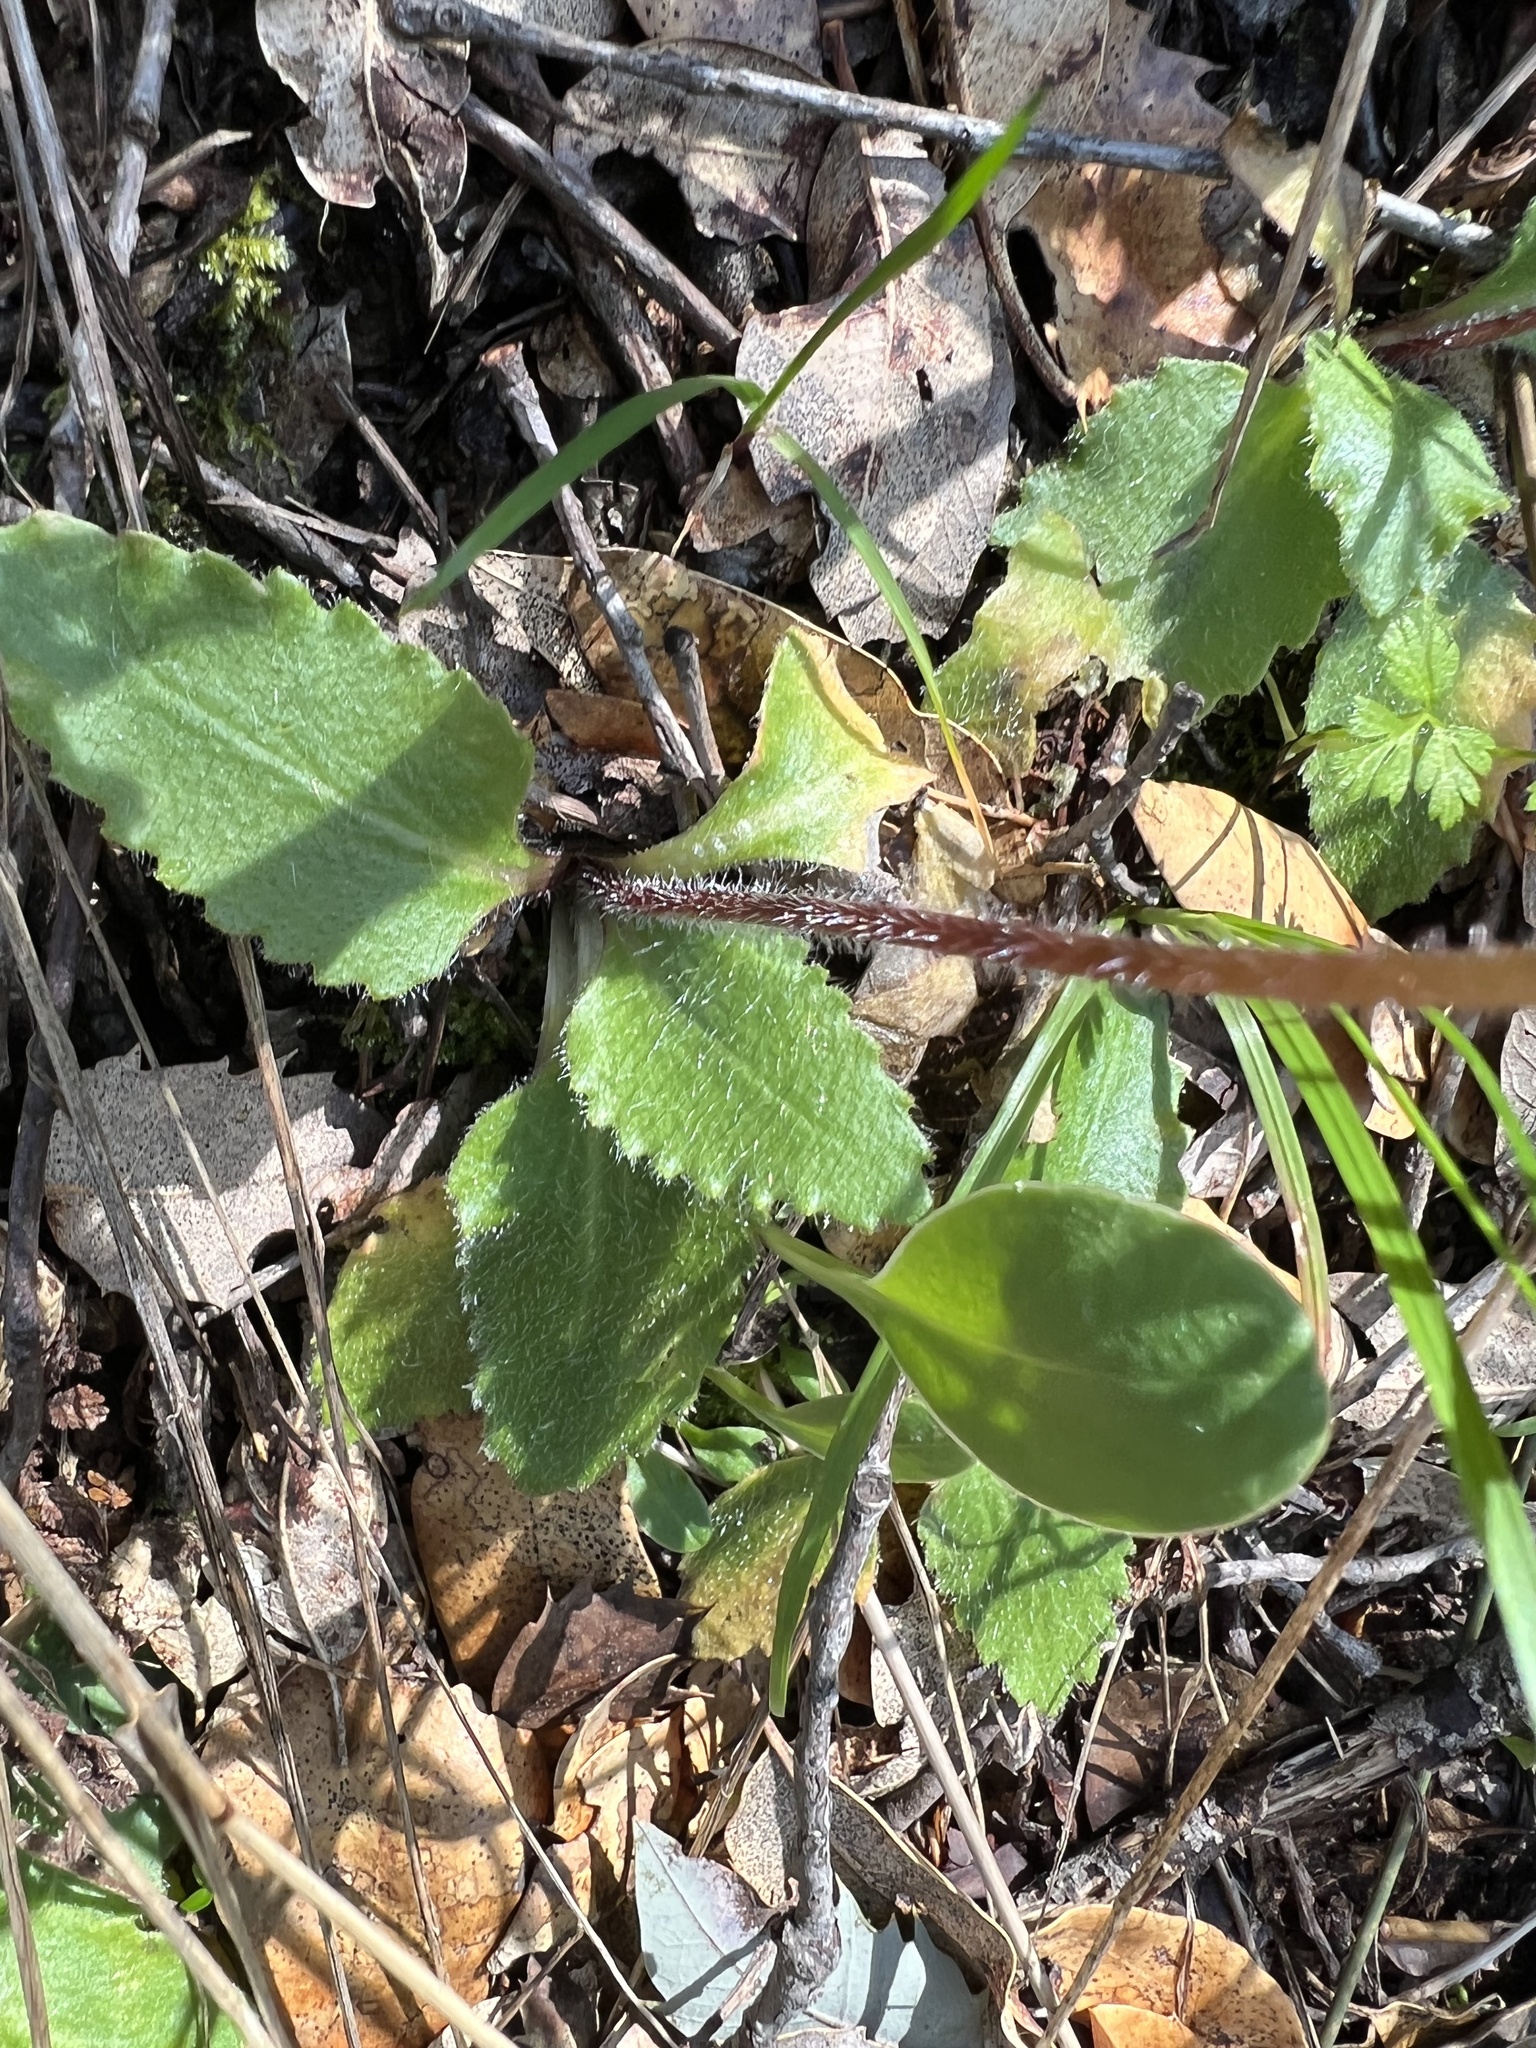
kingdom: Plantae
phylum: Tracheophyta
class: Magnoliopsida
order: Saxifragales
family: Saxifragaceae
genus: Micranthes
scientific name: Micranthes californica
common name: California saxifrage
